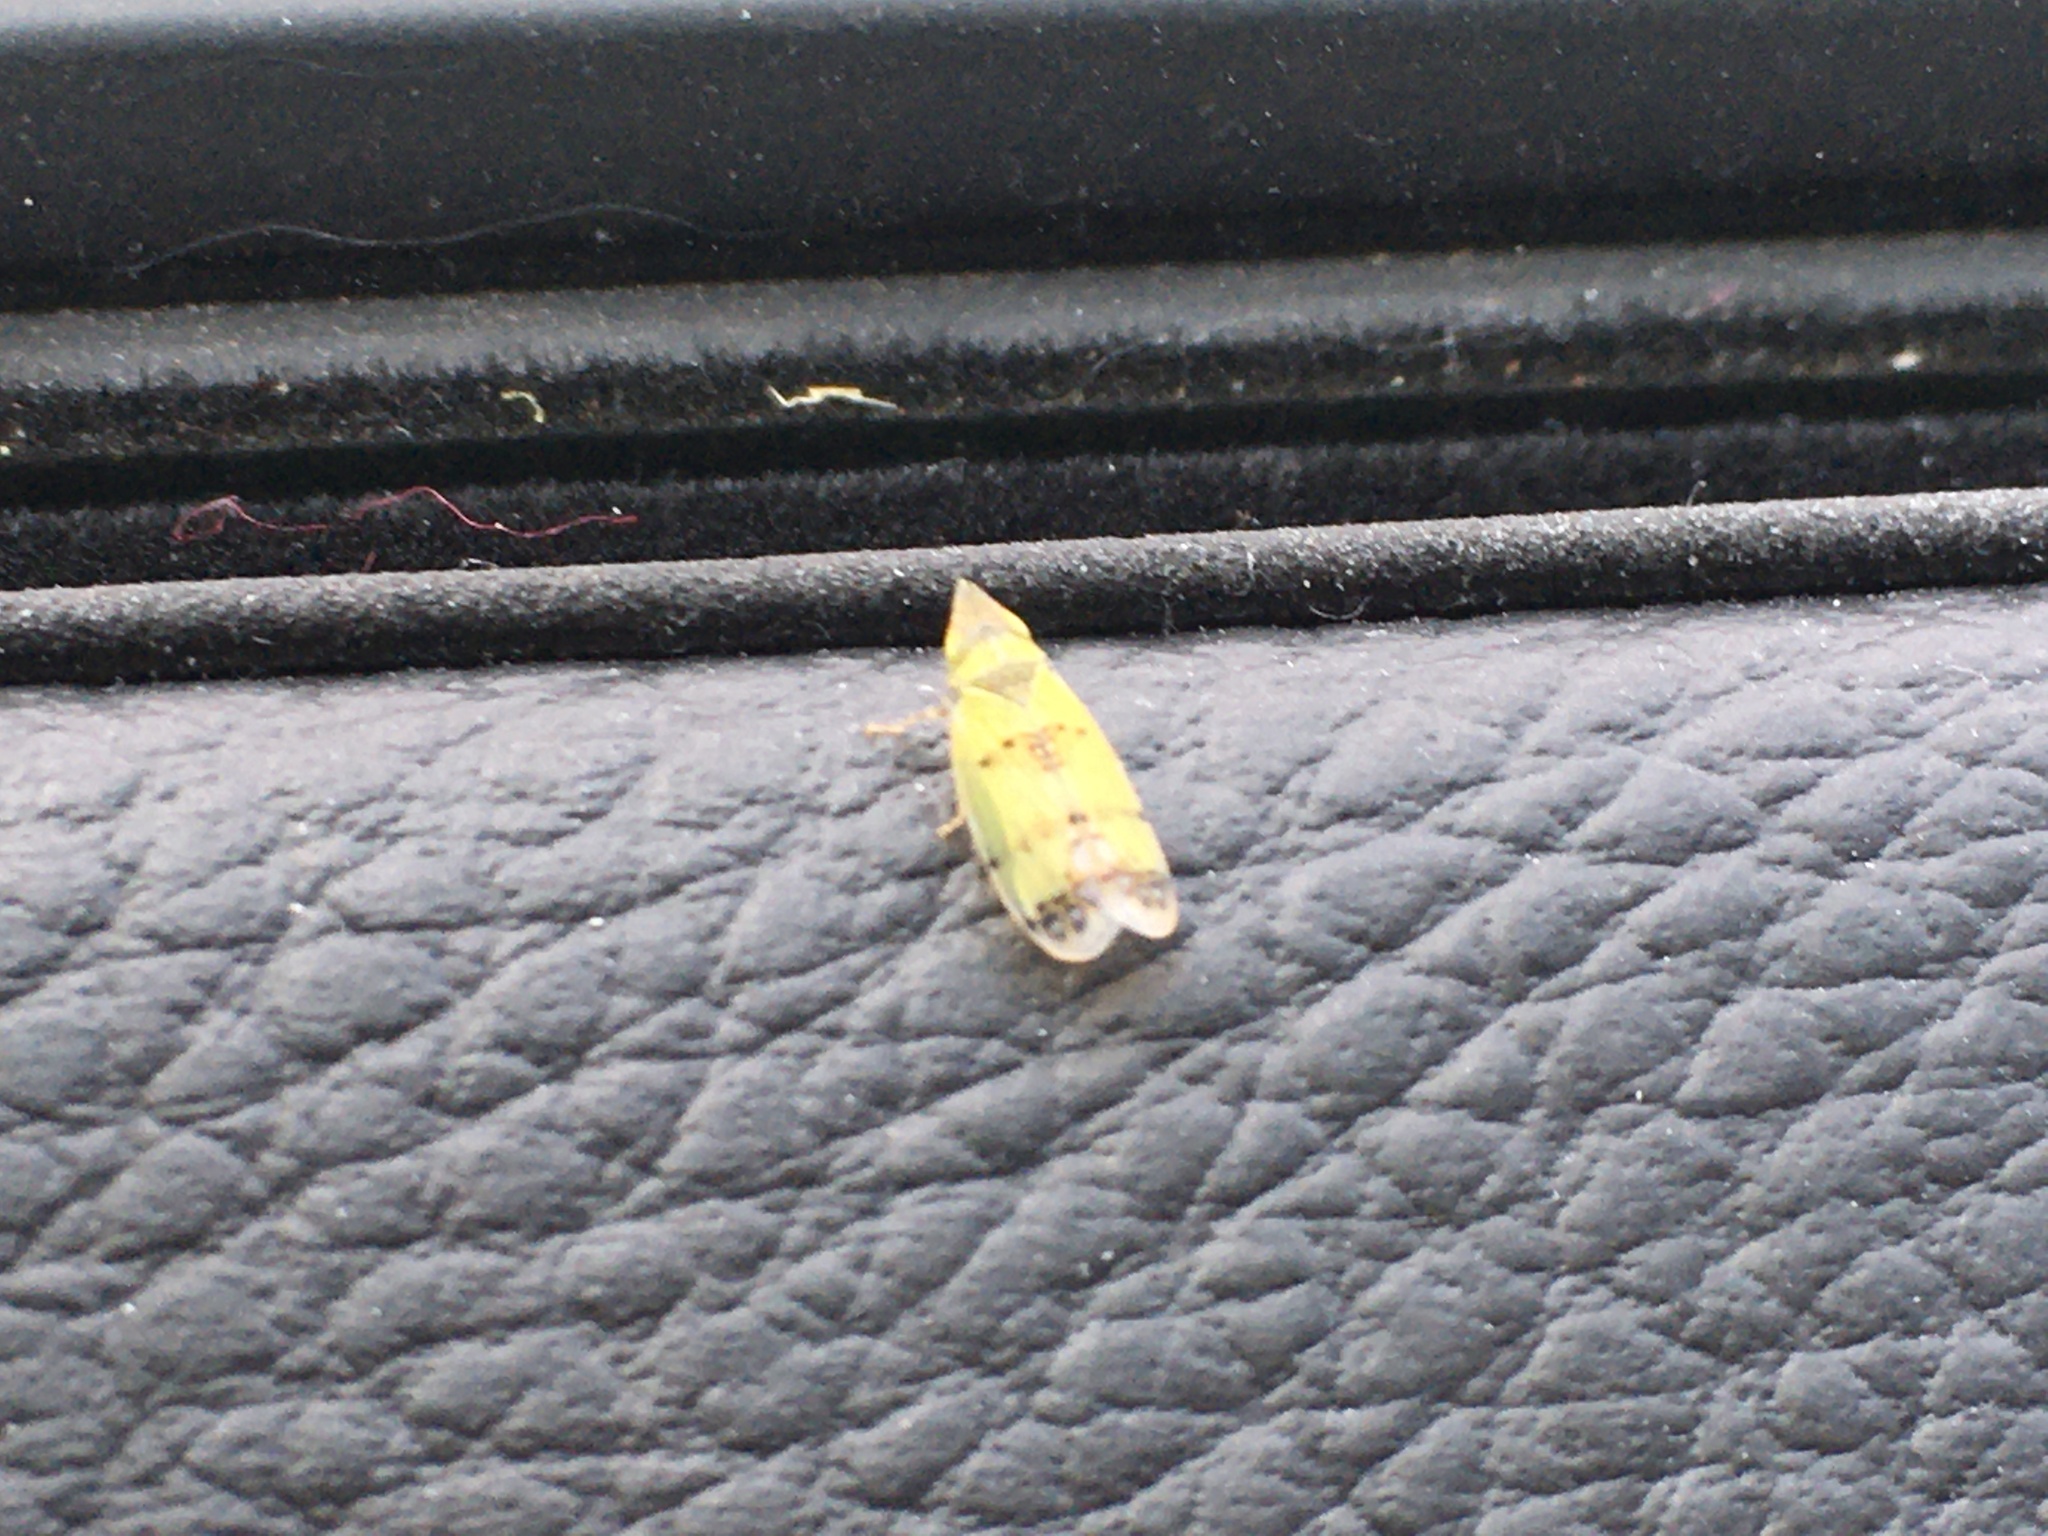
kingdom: Animalia
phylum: Arthropoda
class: Insecta
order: Hemiptera
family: Cicadellidae
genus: Japananus
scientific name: Japananus hyalinus
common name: The japanese maple leafhopper
